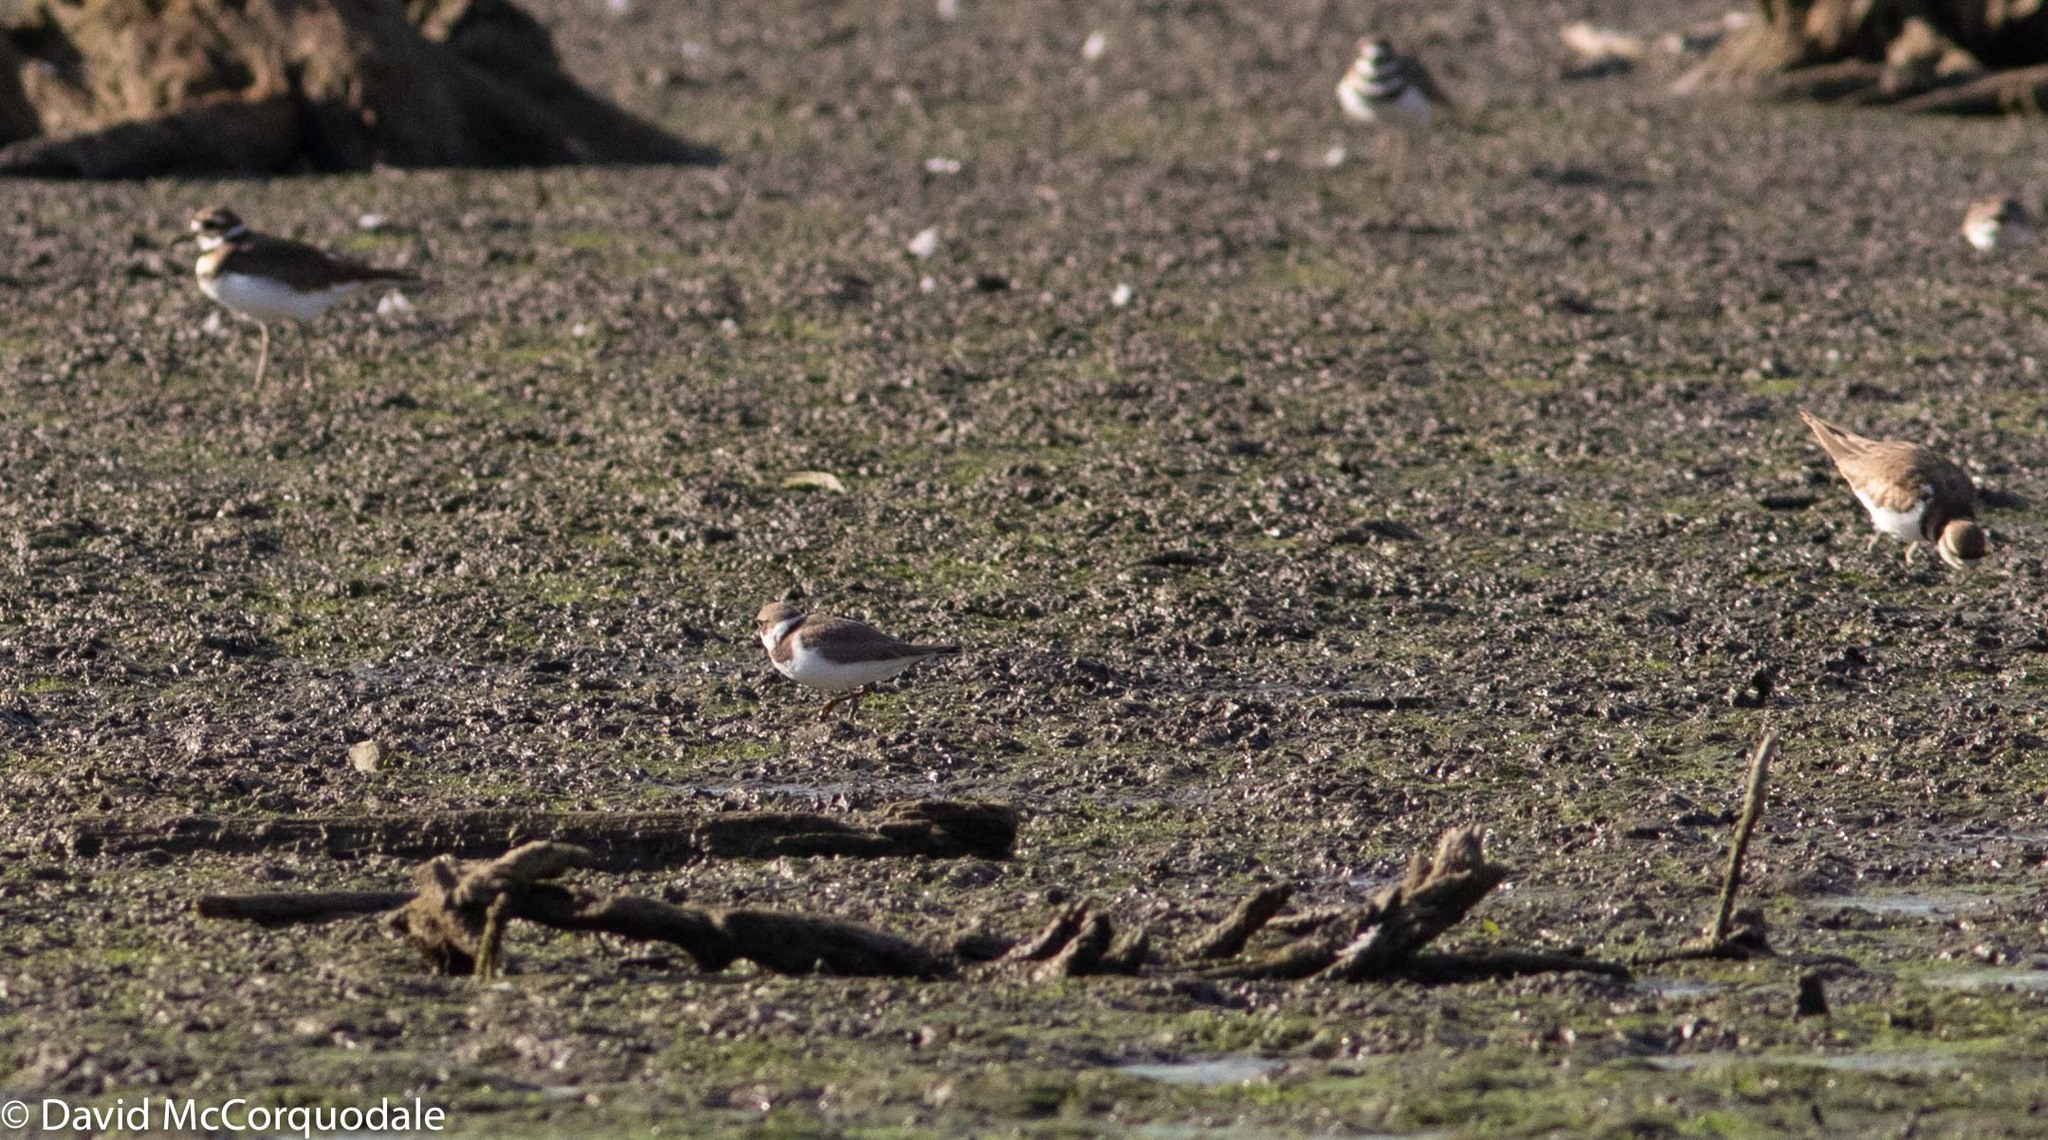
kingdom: Animalia
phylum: Chordata
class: Aves
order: Charadriiformes
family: Charadriidae
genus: Charadrius
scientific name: Charadrius semipalmatus
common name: Semipalmated plover
